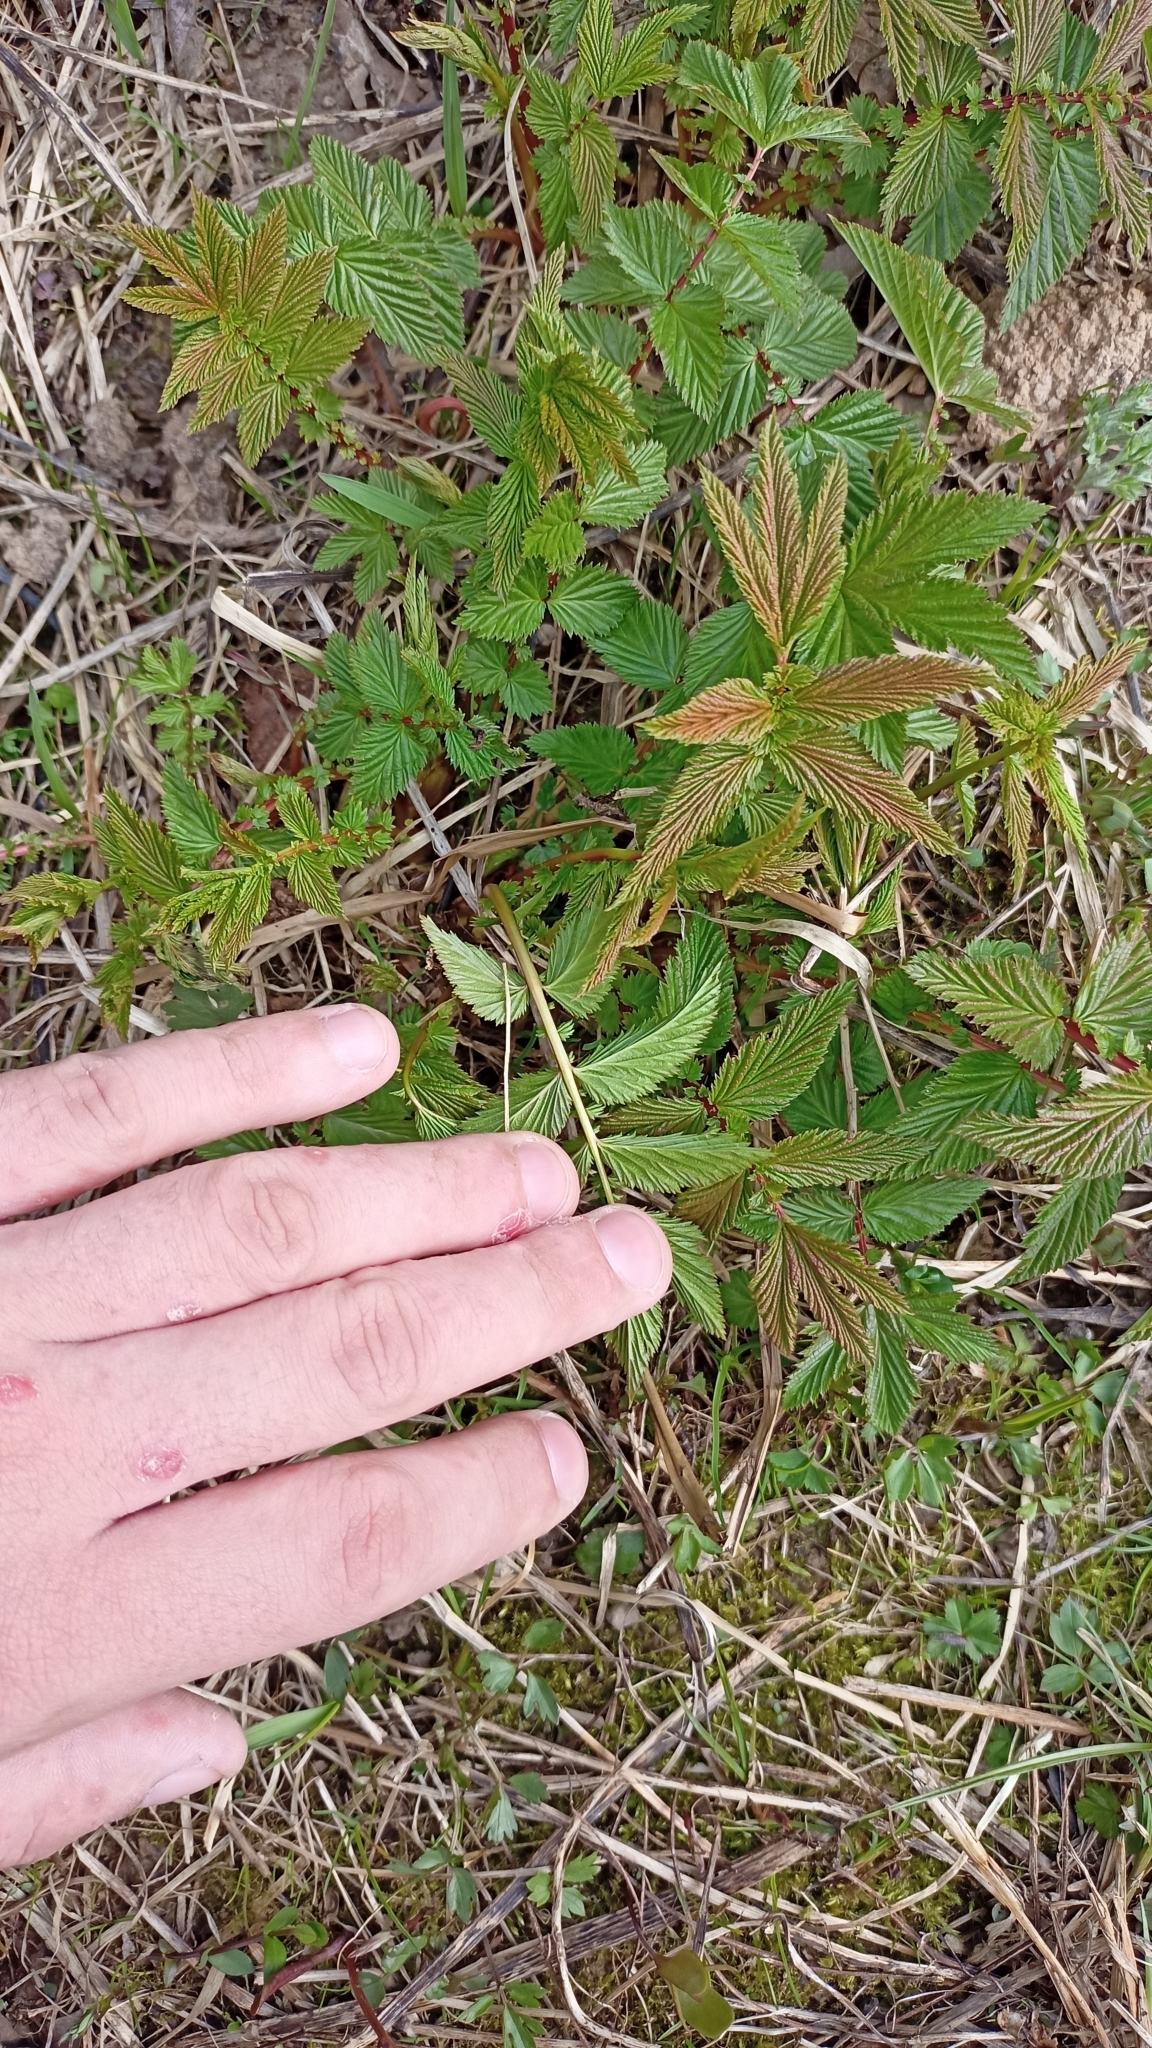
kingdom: Plantae
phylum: Tracheophyta
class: Magnoliopsida
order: Rosales
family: Rosaceae
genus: Filipendula
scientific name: Filipendula ulmaria
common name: Meadowsweet
